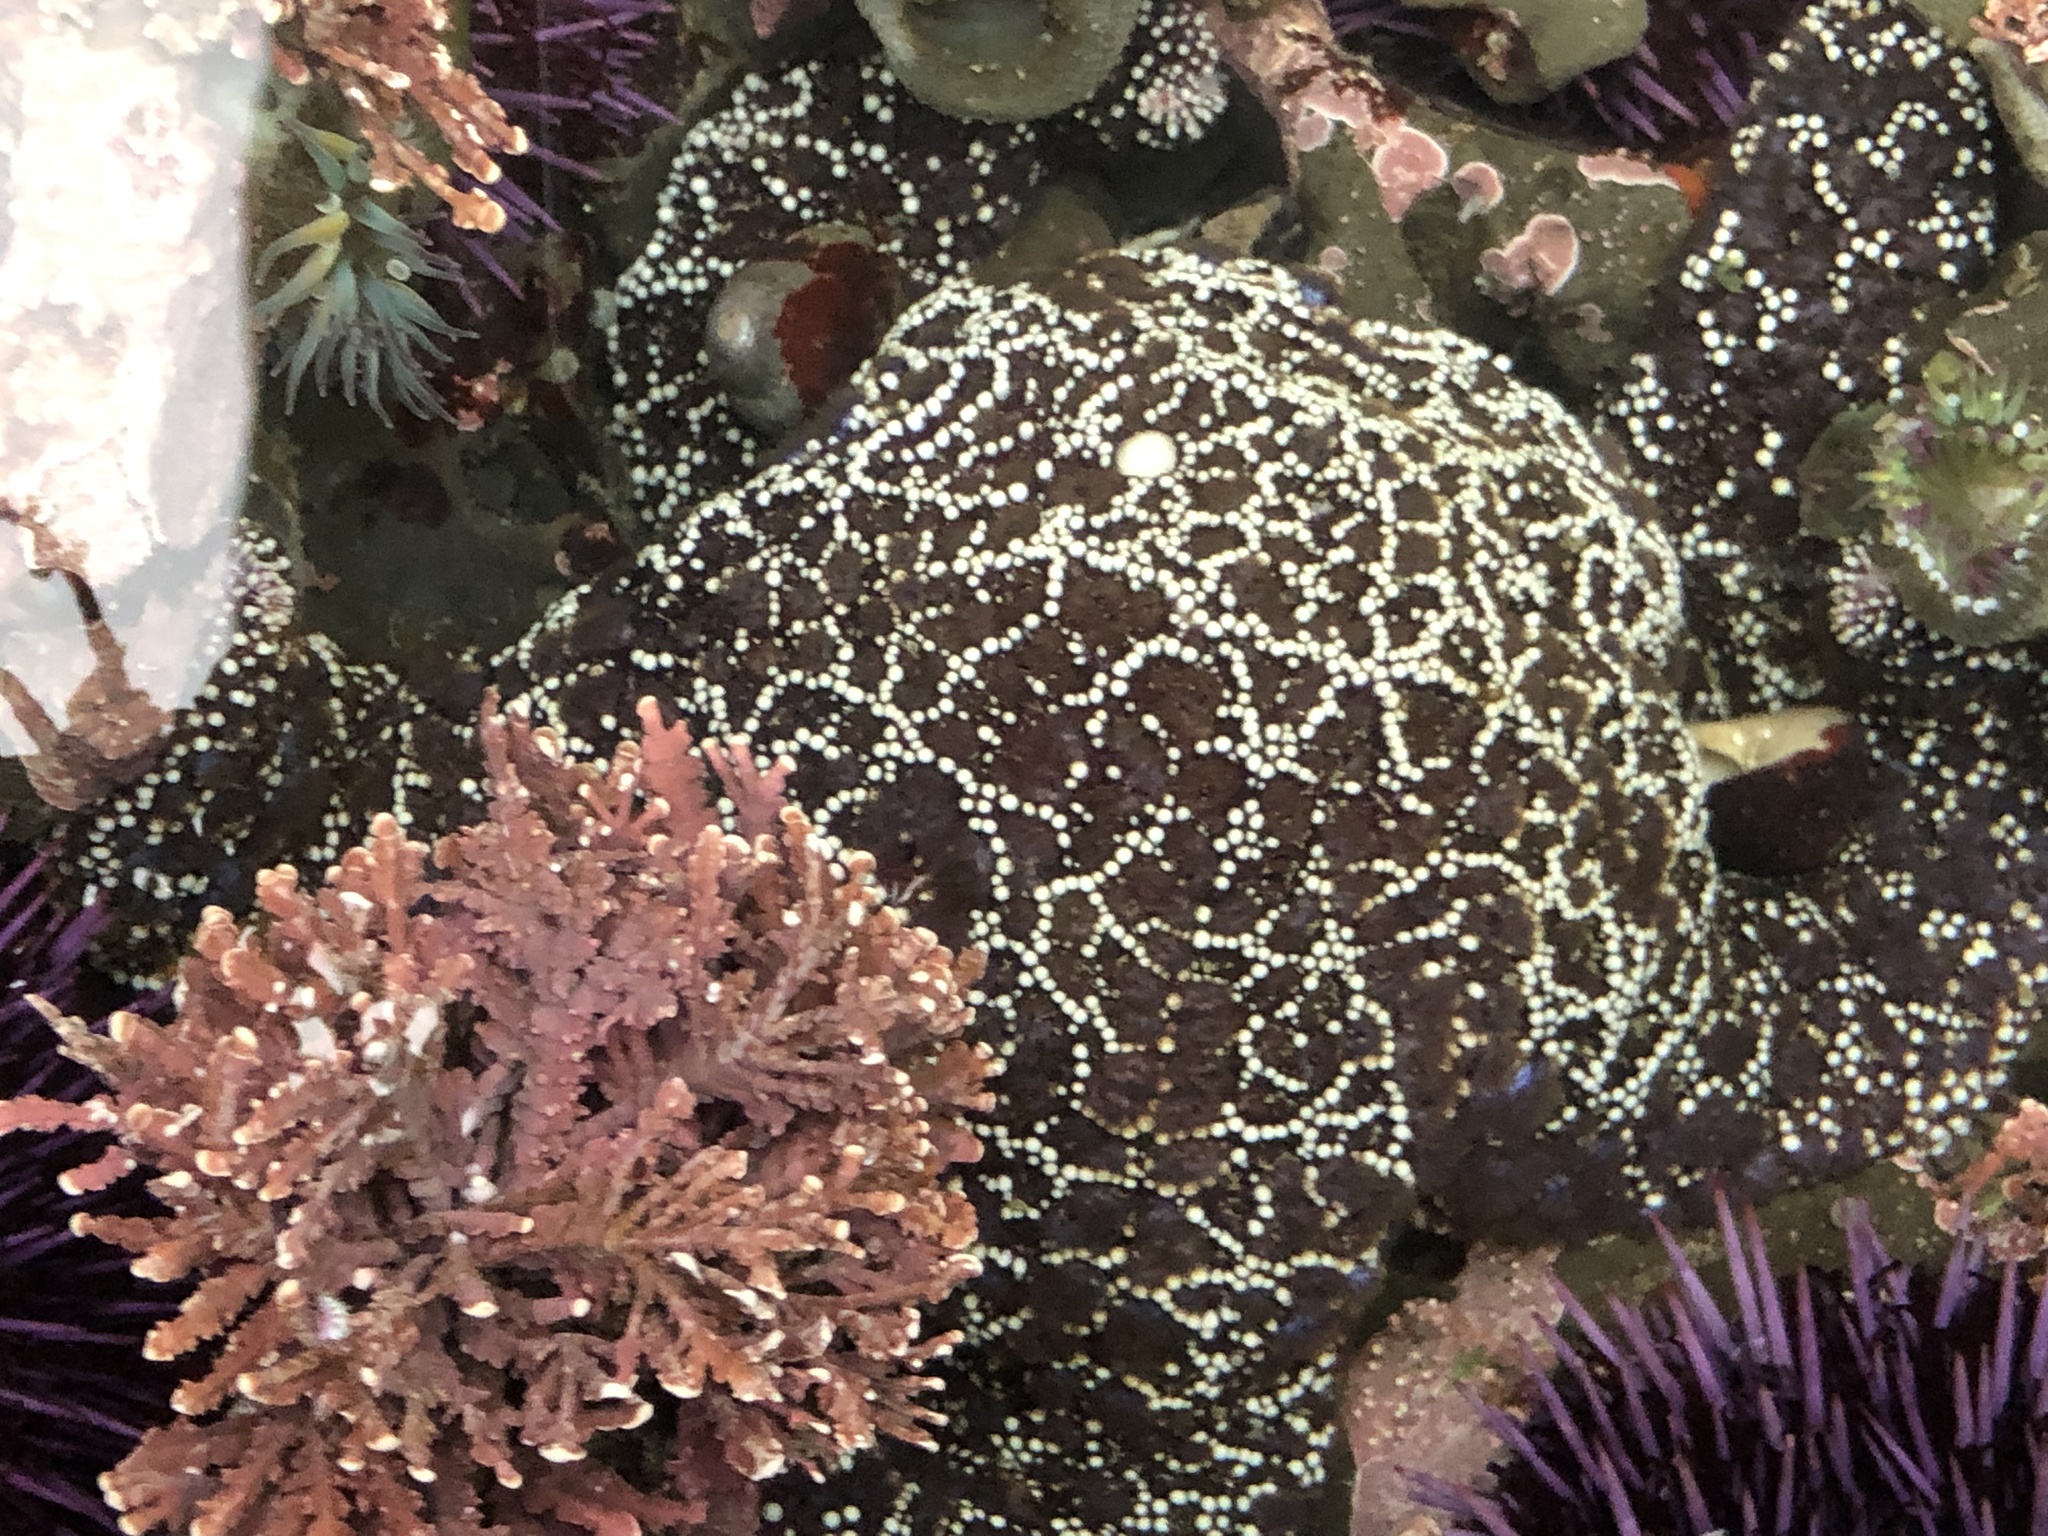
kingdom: Animalia
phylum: Echinodermata
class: Asteroidea
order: Forcipulatida
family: Asteriidae
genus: Pisaster
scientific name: Pisaster ochraceus
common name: Ochre stars
